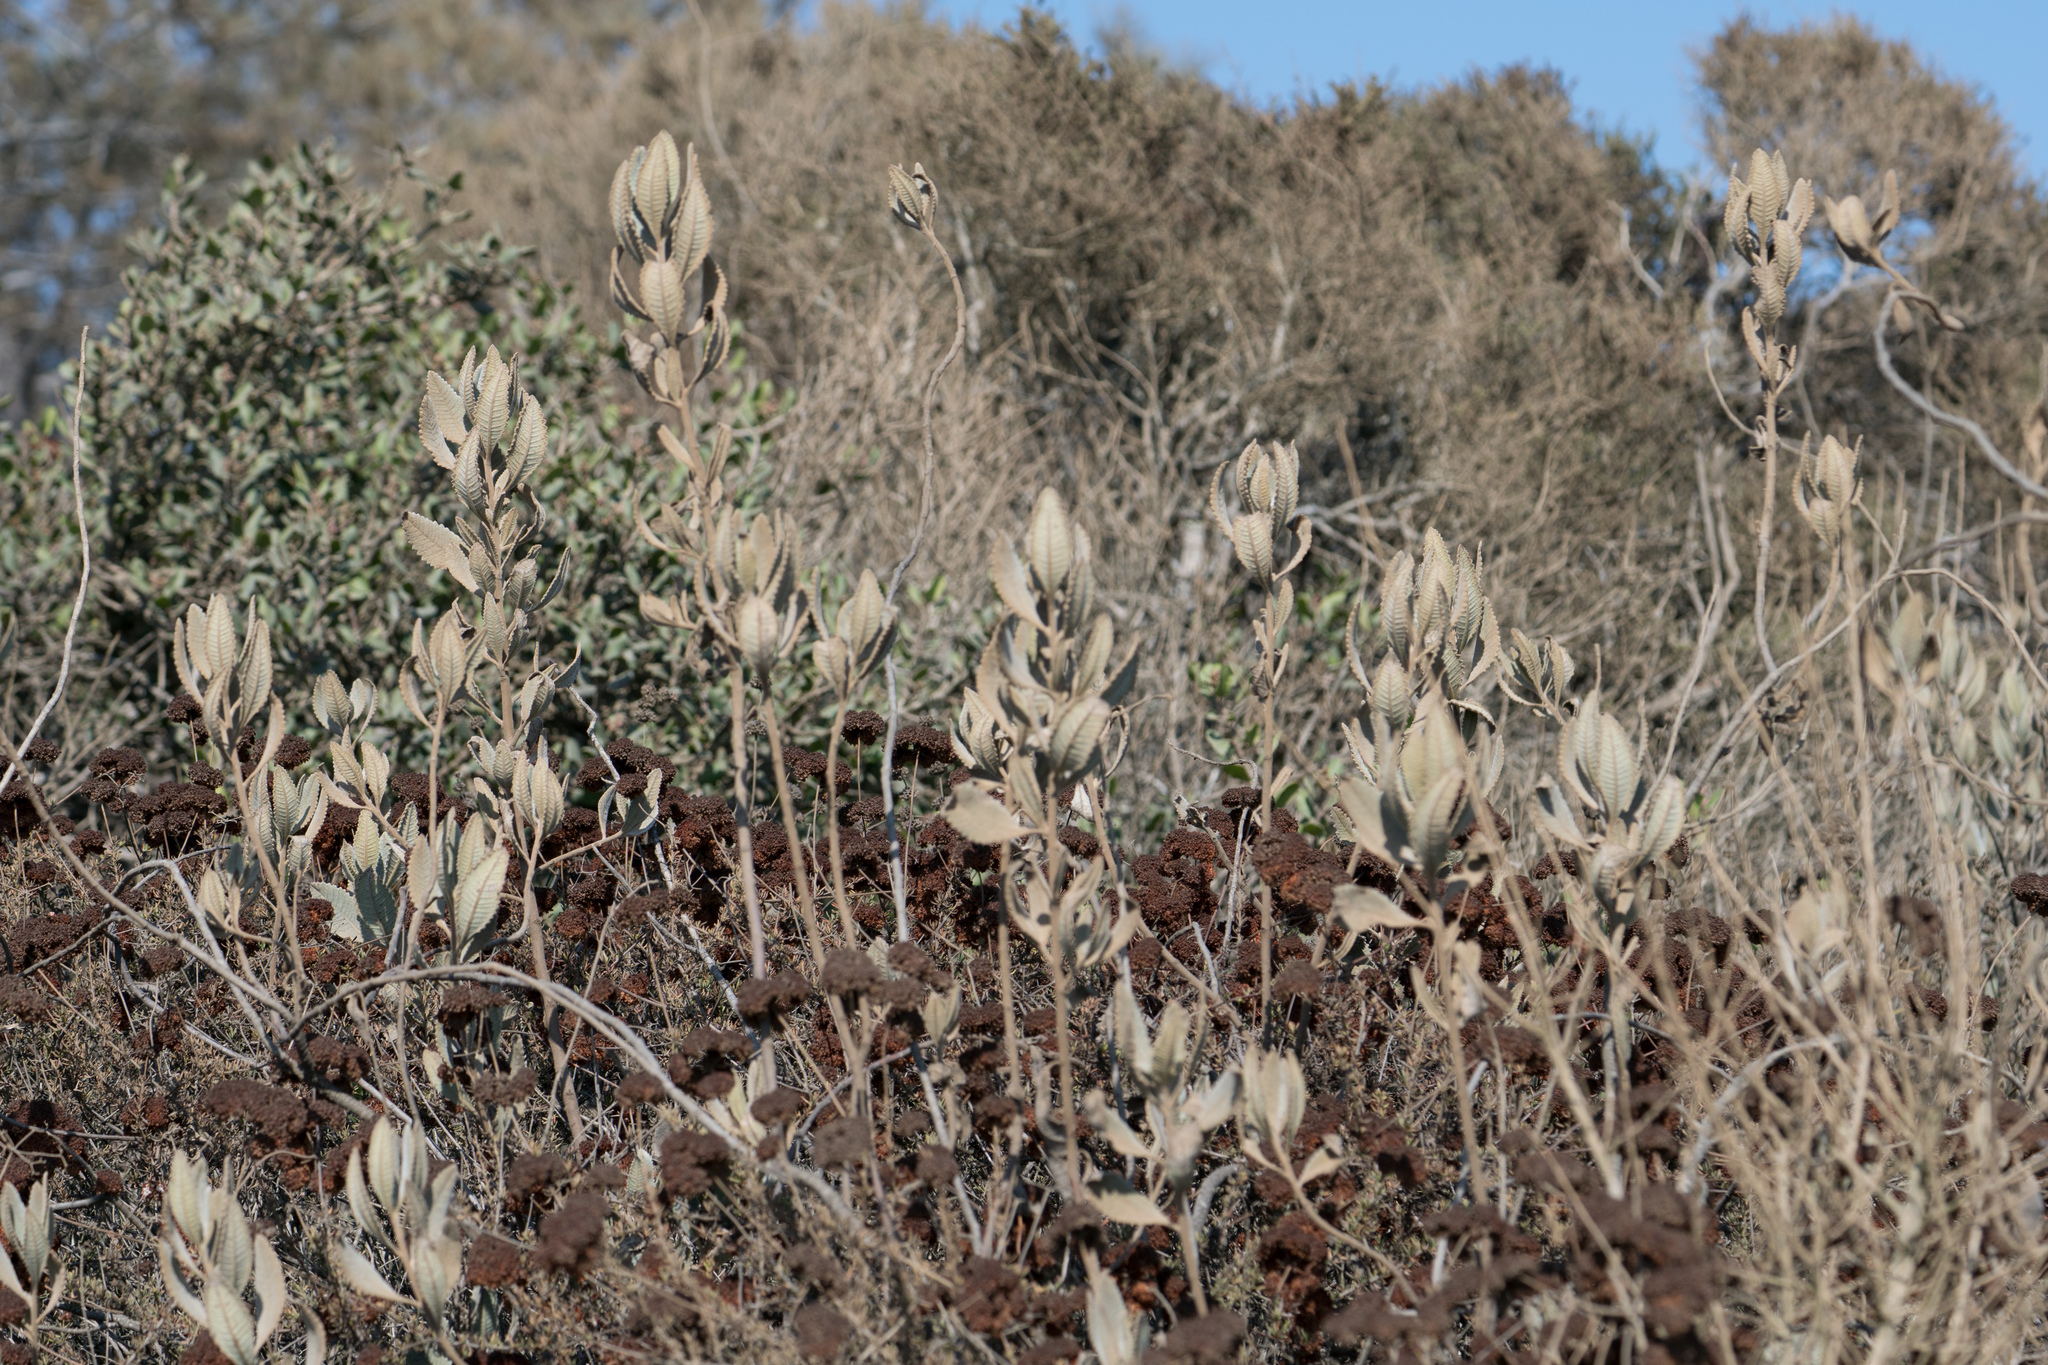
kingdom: Plantae
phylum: Tracheophyta
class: Magnoliopsida
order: Boraginales
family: Namaceae
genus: Eriodictyon
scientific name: Eriodictyon crassifolium
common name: Thick-leaf yerba-santa
